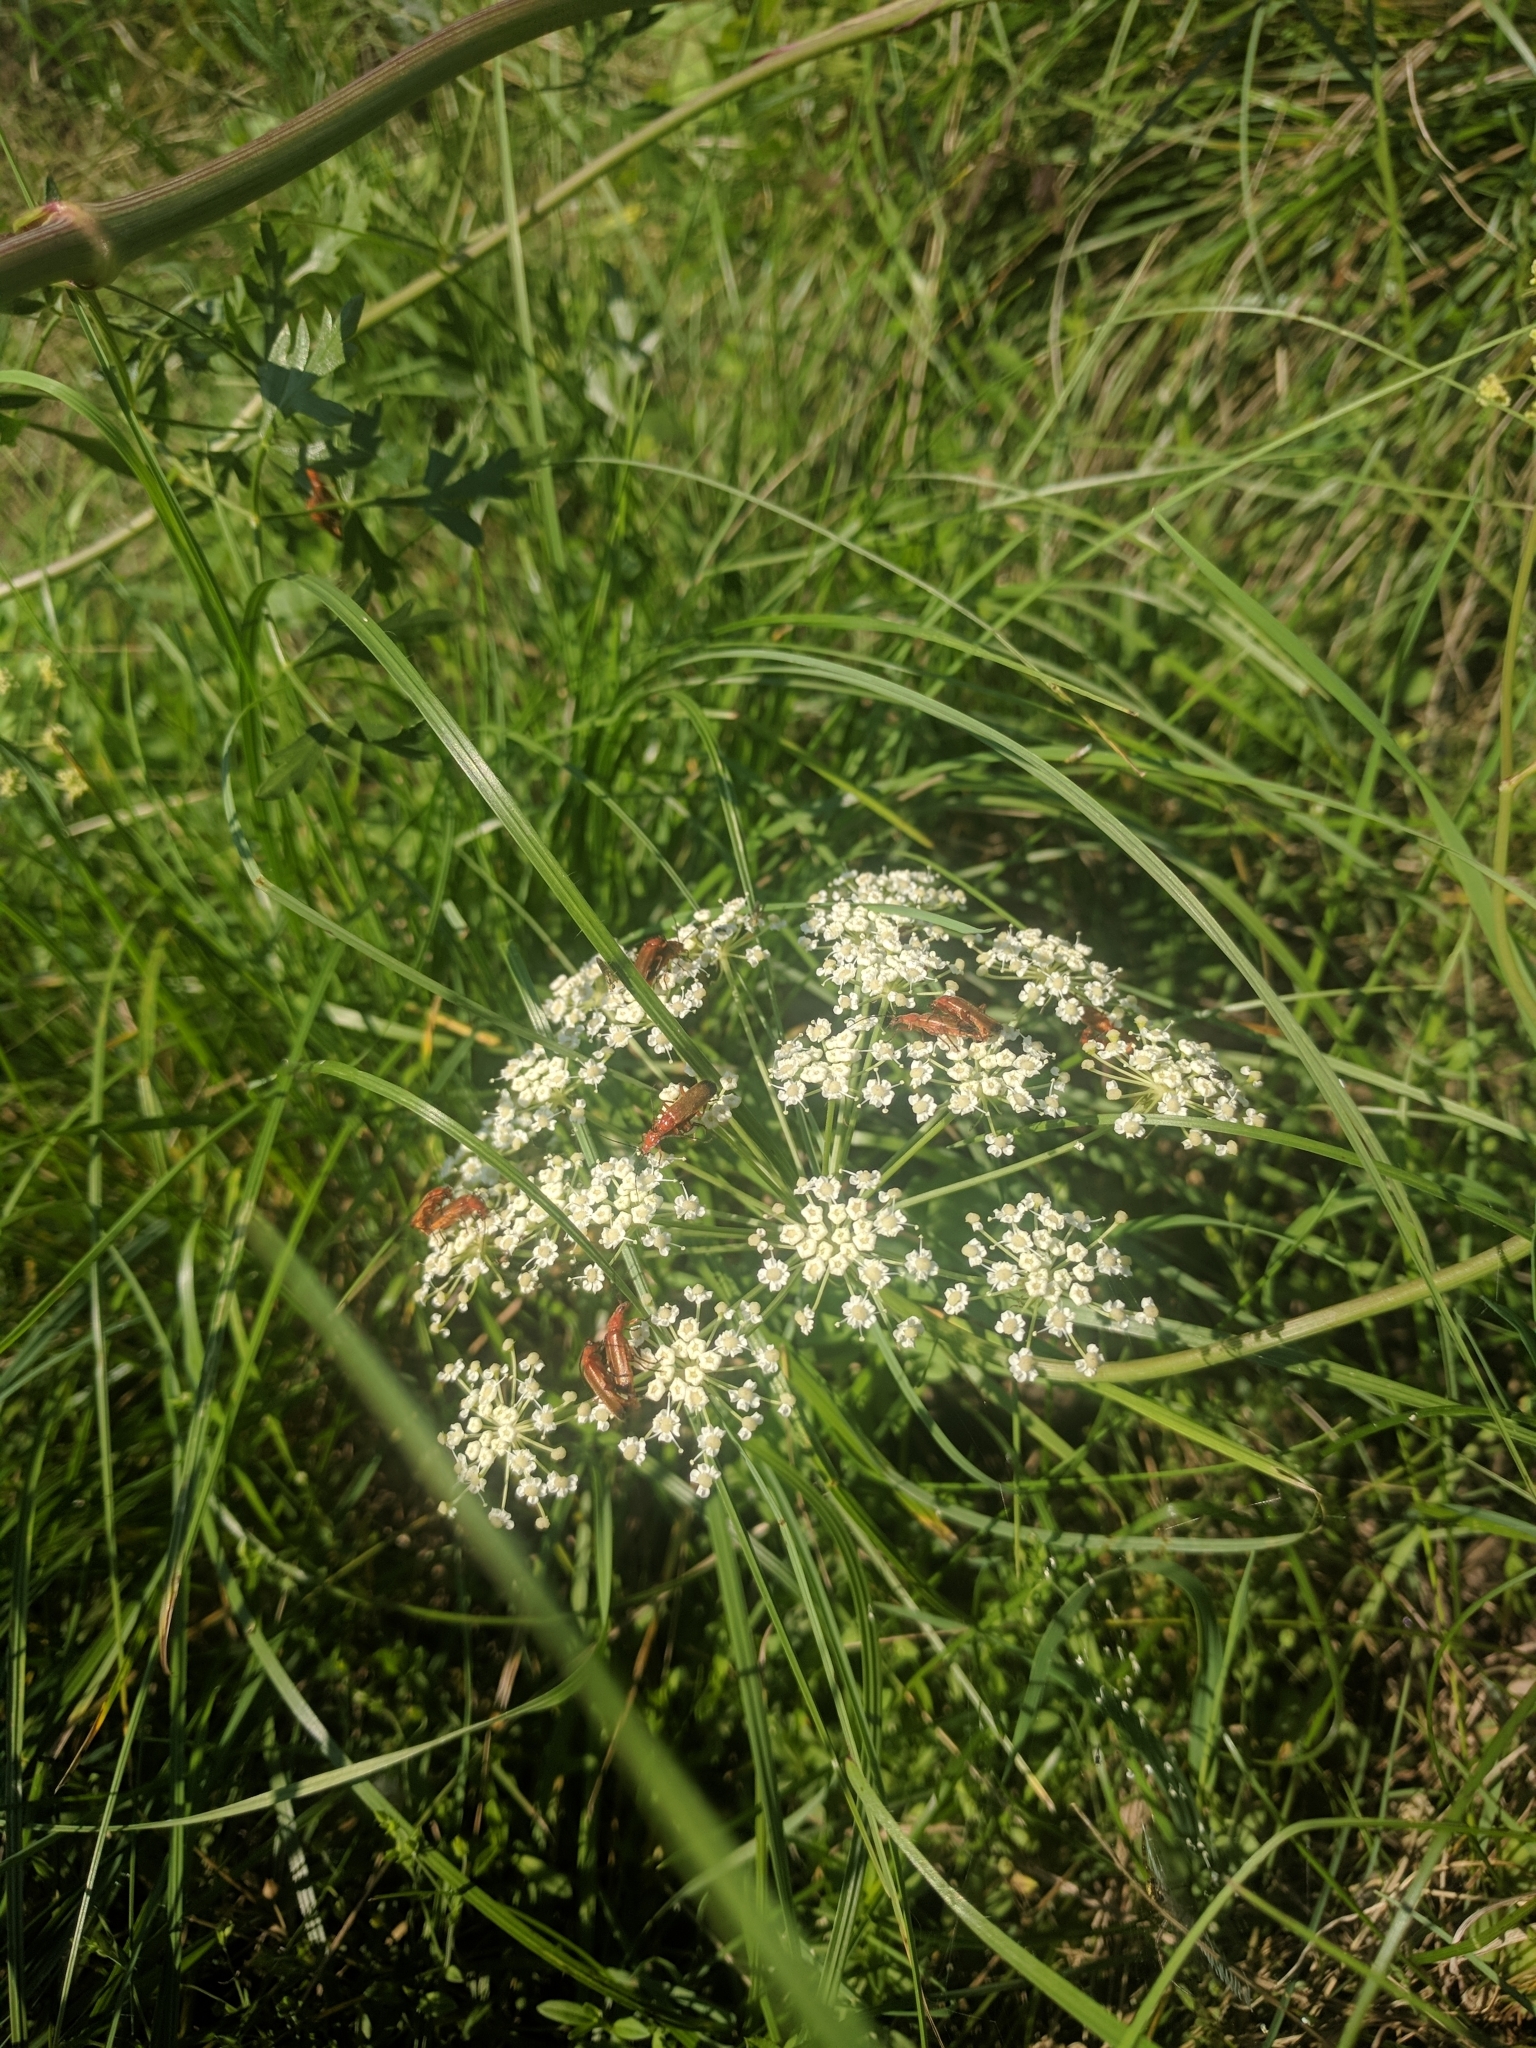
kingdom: Animalia
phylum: Arthropoda
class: Insecta
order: Coleoptera
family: Cantharidae
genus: Rhagonycha
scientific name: Rhagonycha fulva
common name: Common red soldier beetle
